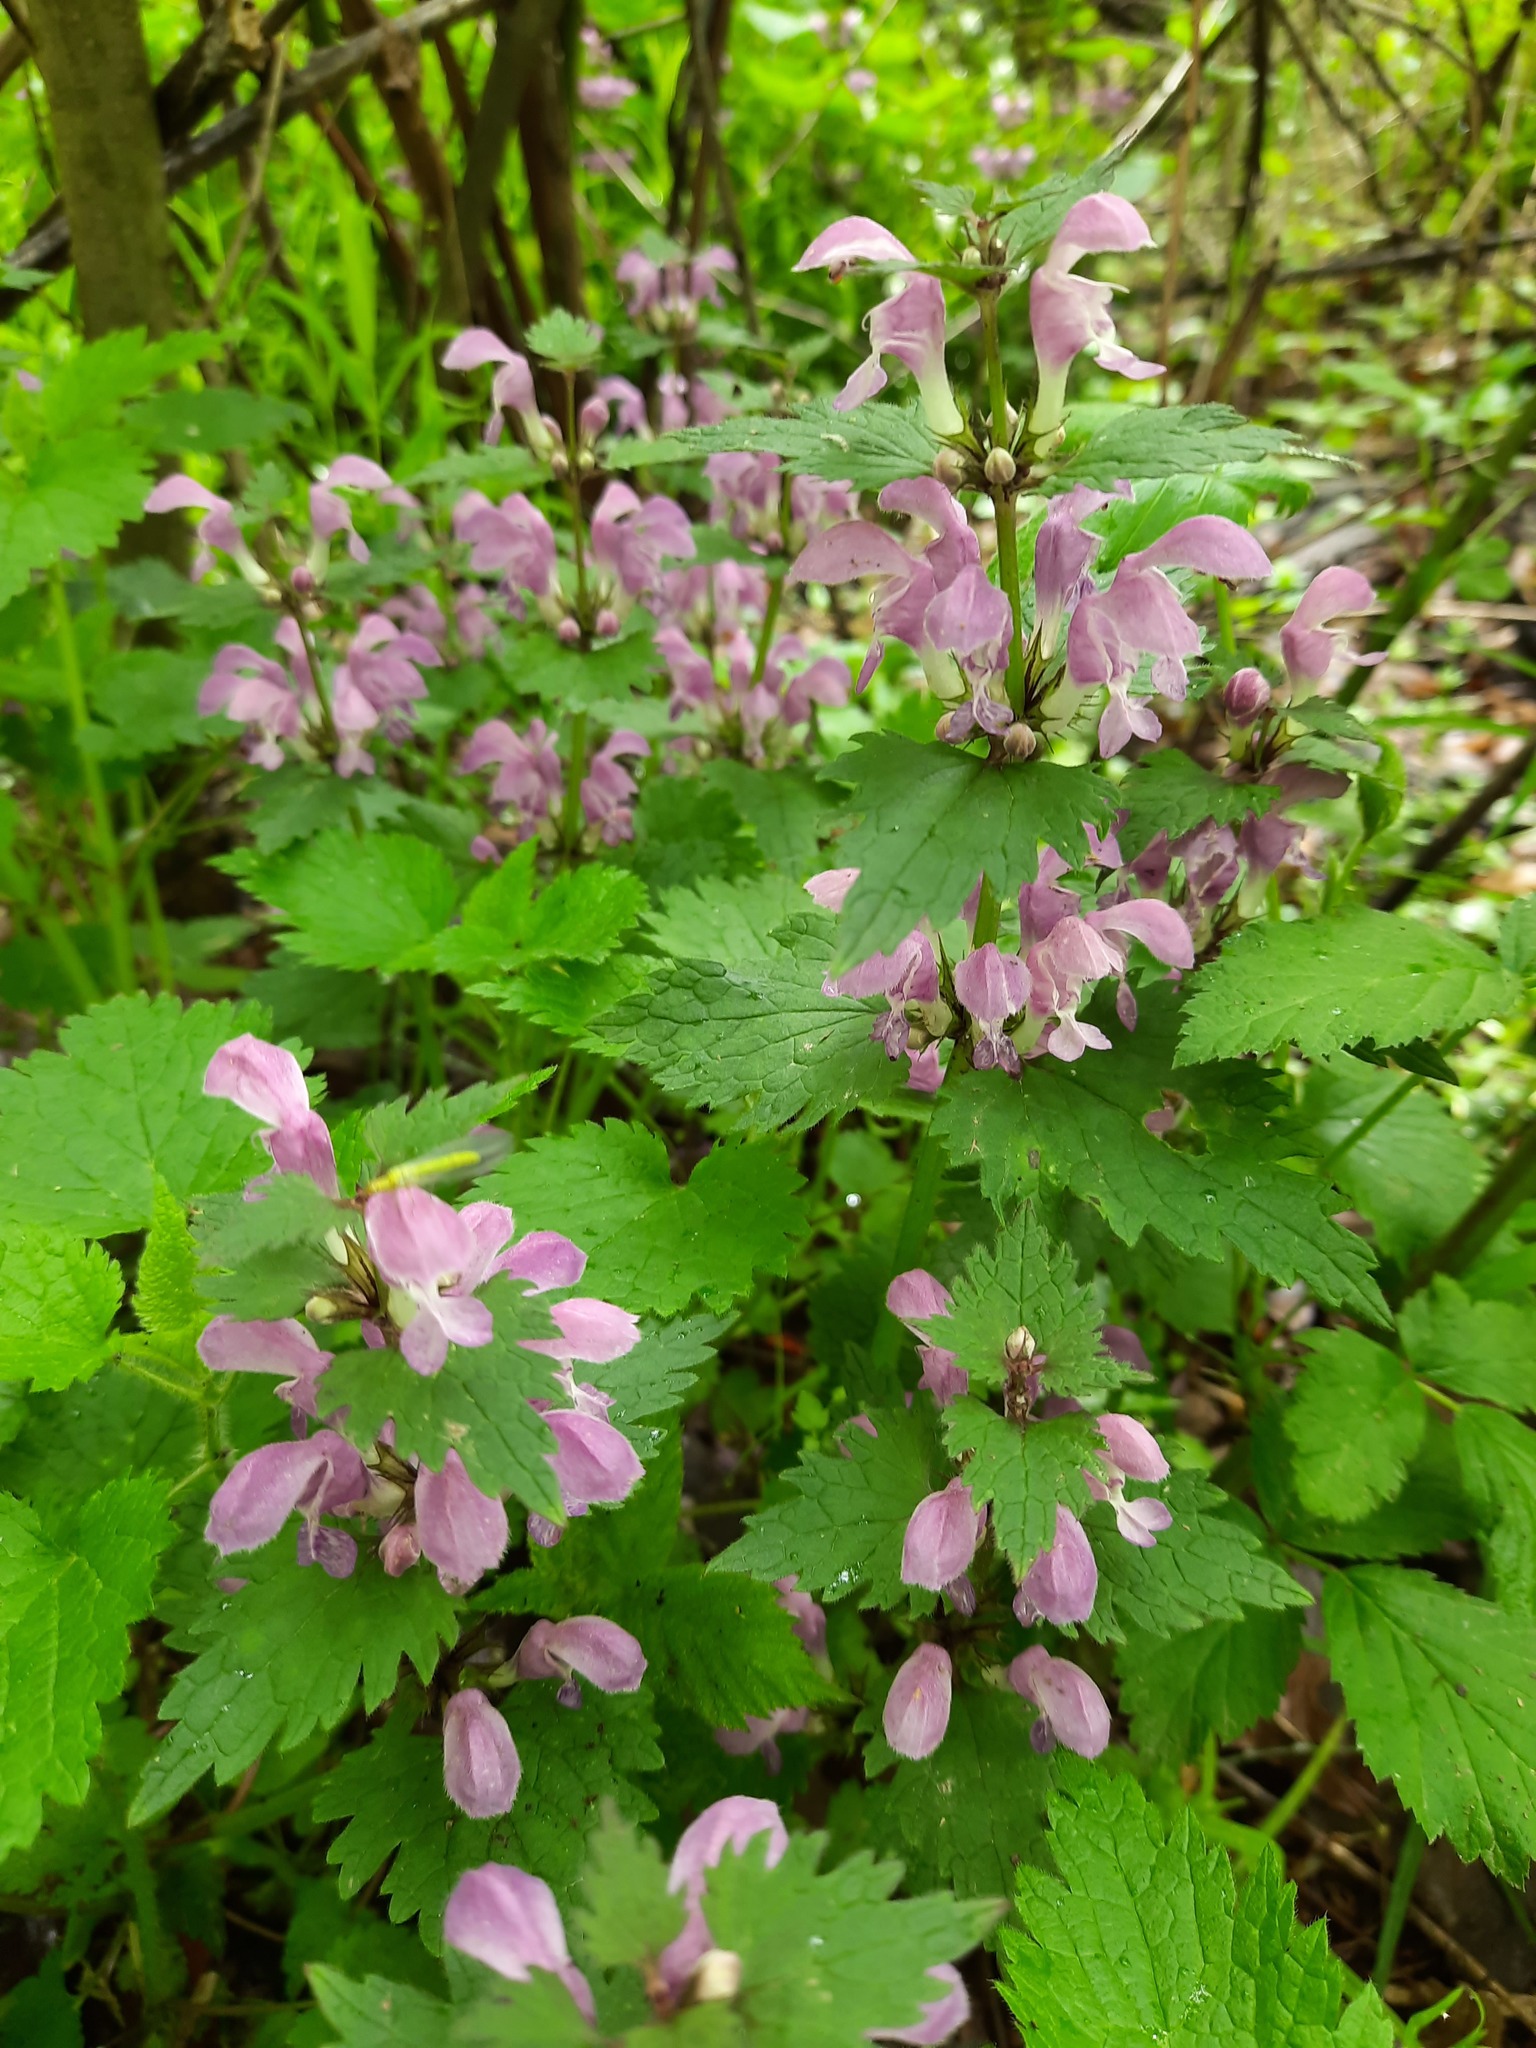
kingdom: Plantae
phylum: Tracheophyta
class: Magnoliopsida
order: Lamiales
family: Lamiaceae
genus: Lamium
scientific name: Lamium maculatum
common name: Spotted dead-nettle
